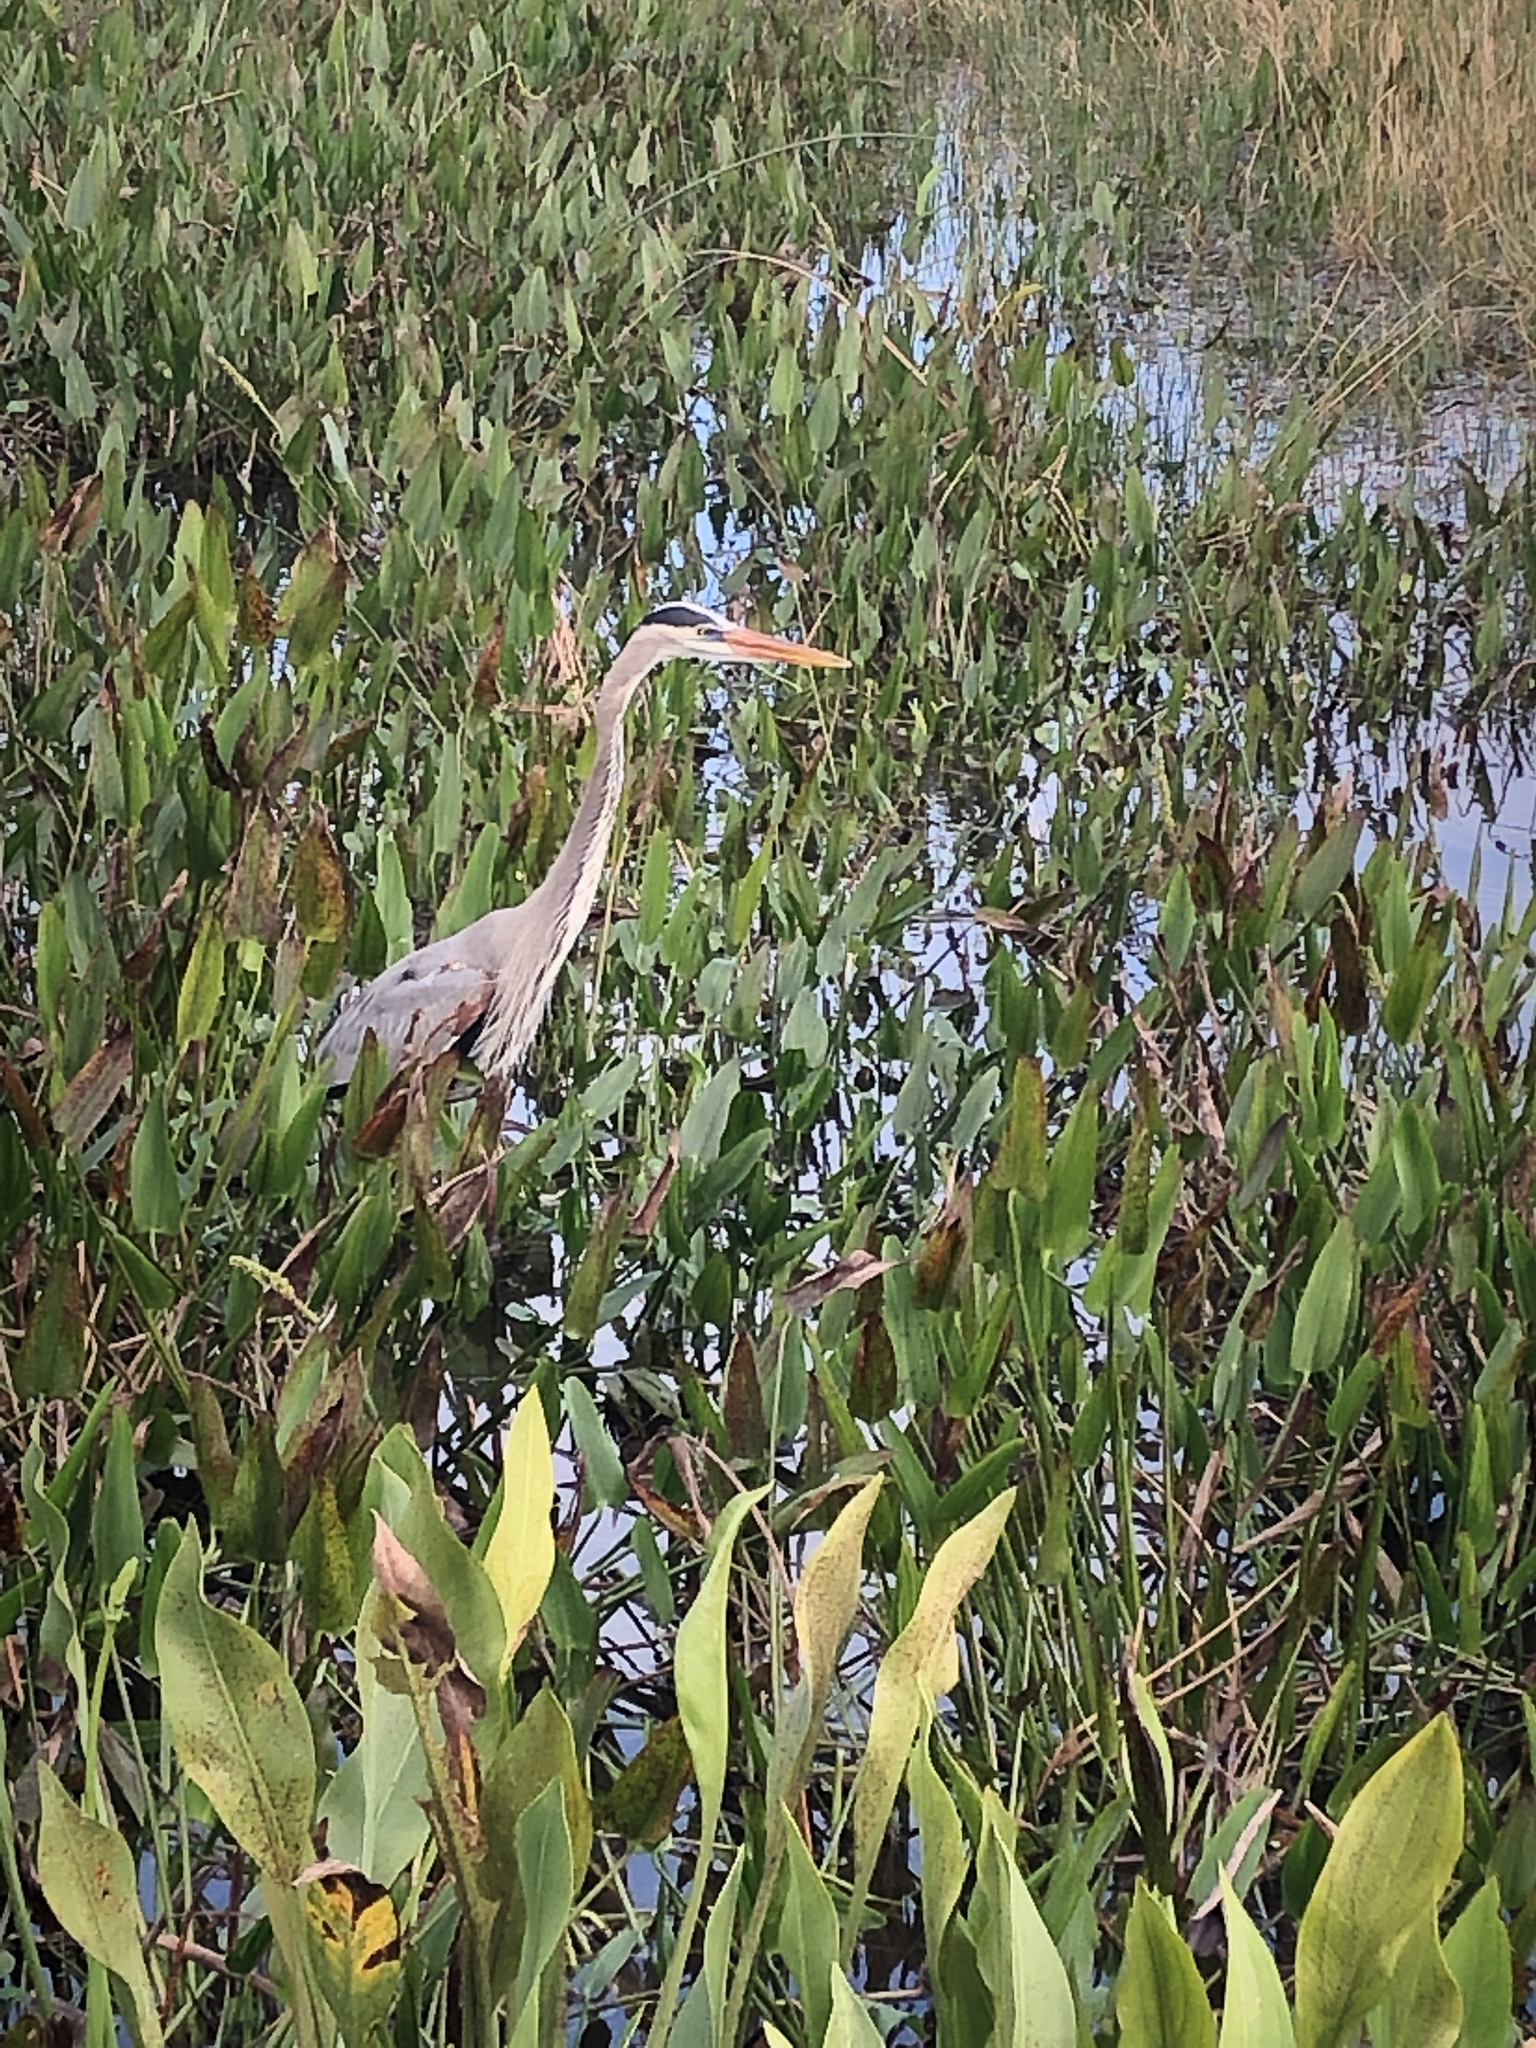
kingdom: Animalia
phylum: Chordata
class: Aves
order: Pelecaniformes
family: Ardeidae
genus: Ardea
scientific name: Ardea herodias
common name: Great blue heron
